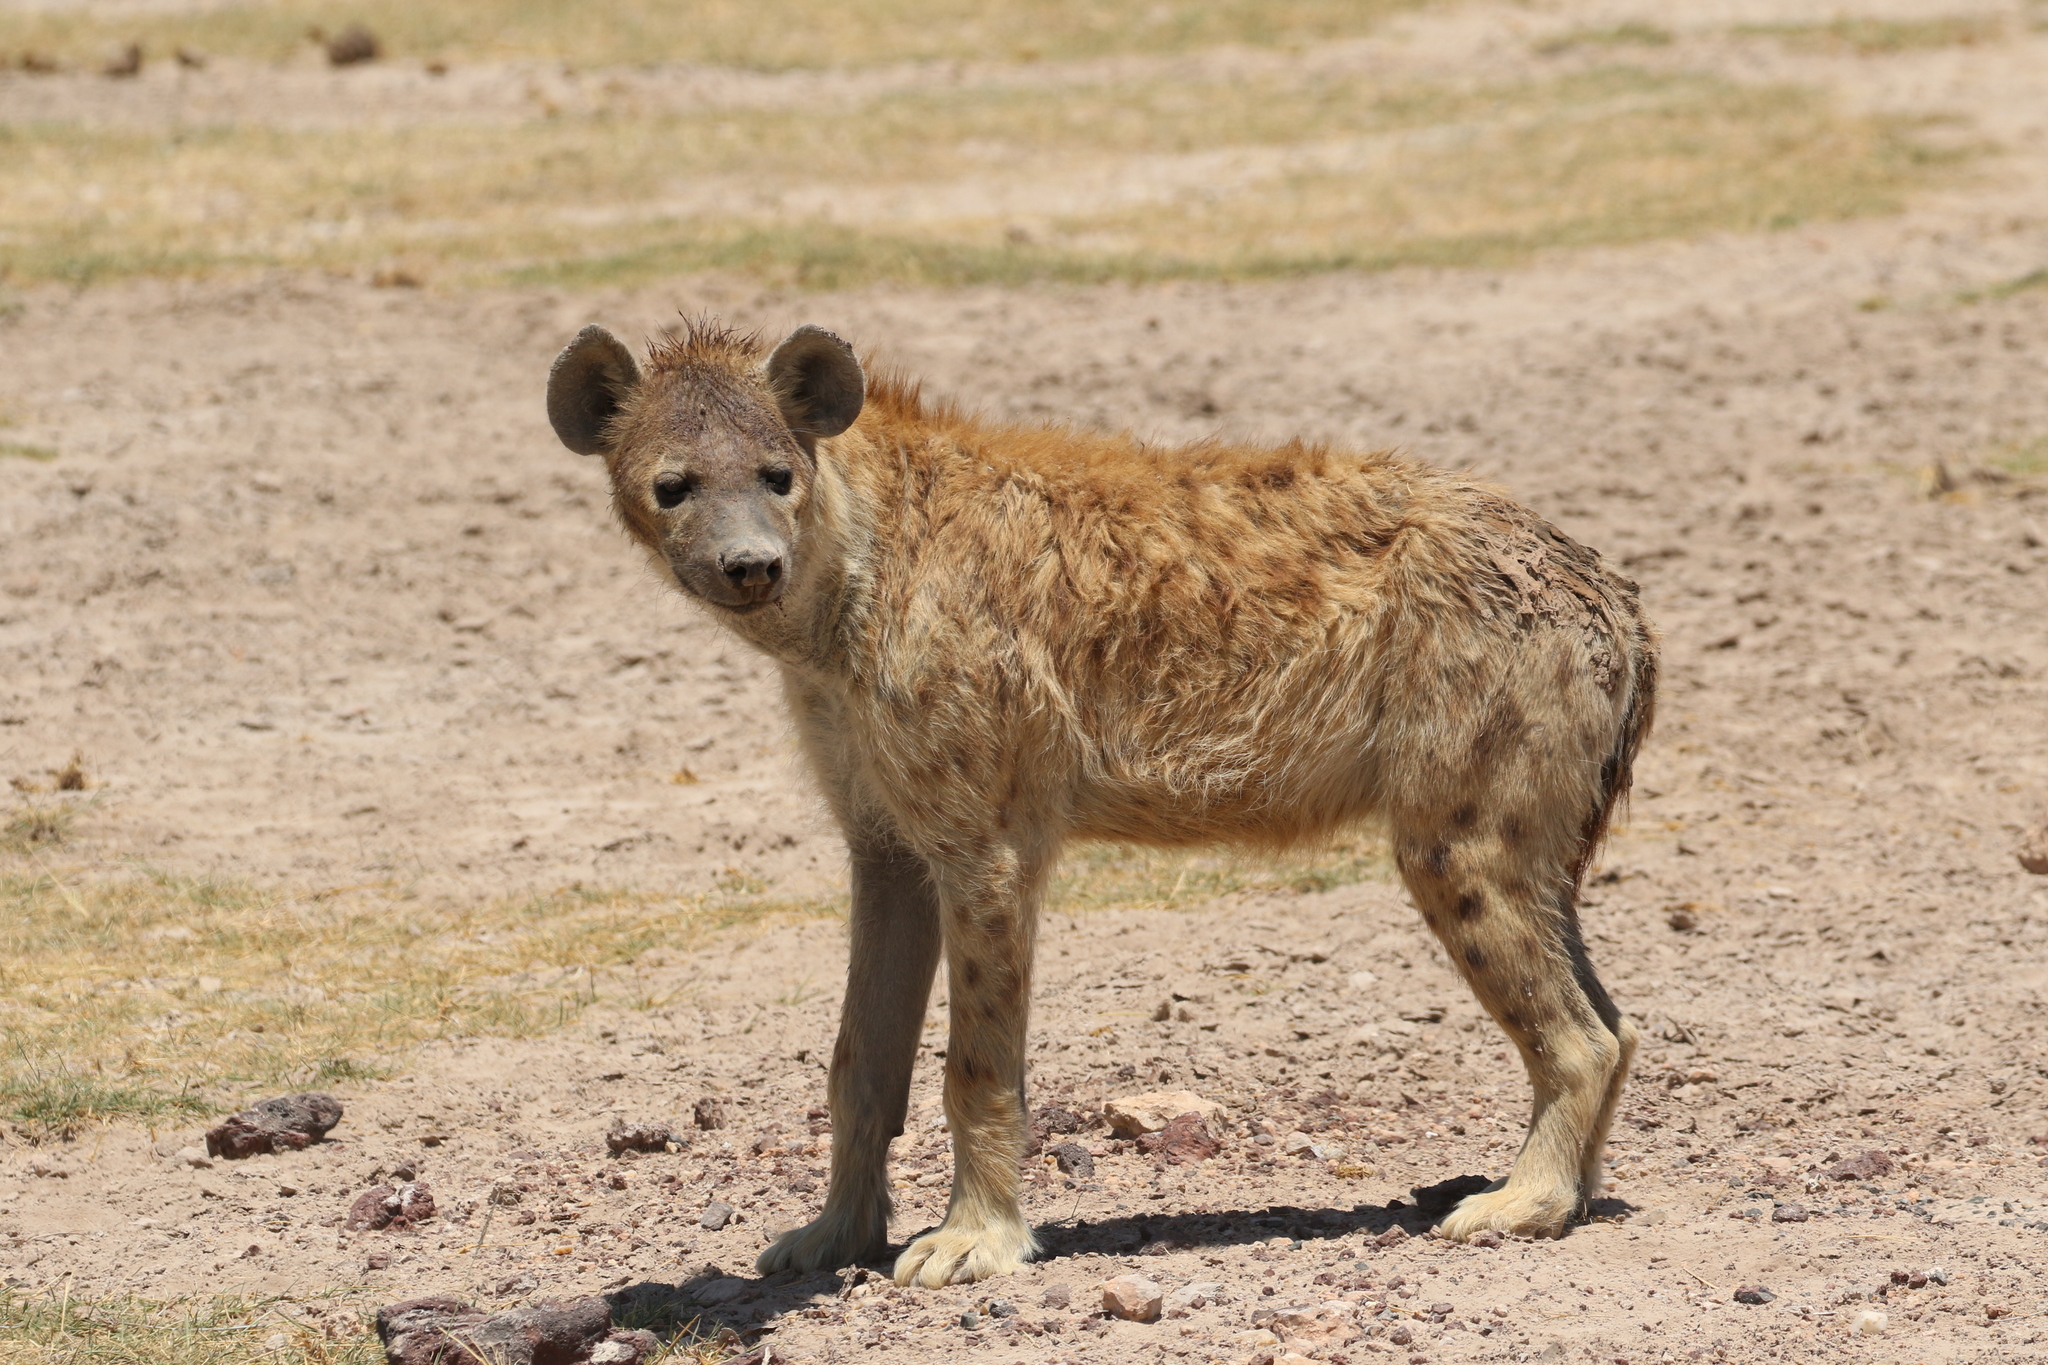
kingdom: Animalia
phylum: Chordata
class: Mammalia
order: Carnivora
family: Hyaenidae
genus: Crocuta
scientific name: Crocuta crocuta
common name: Spotted hyaena
